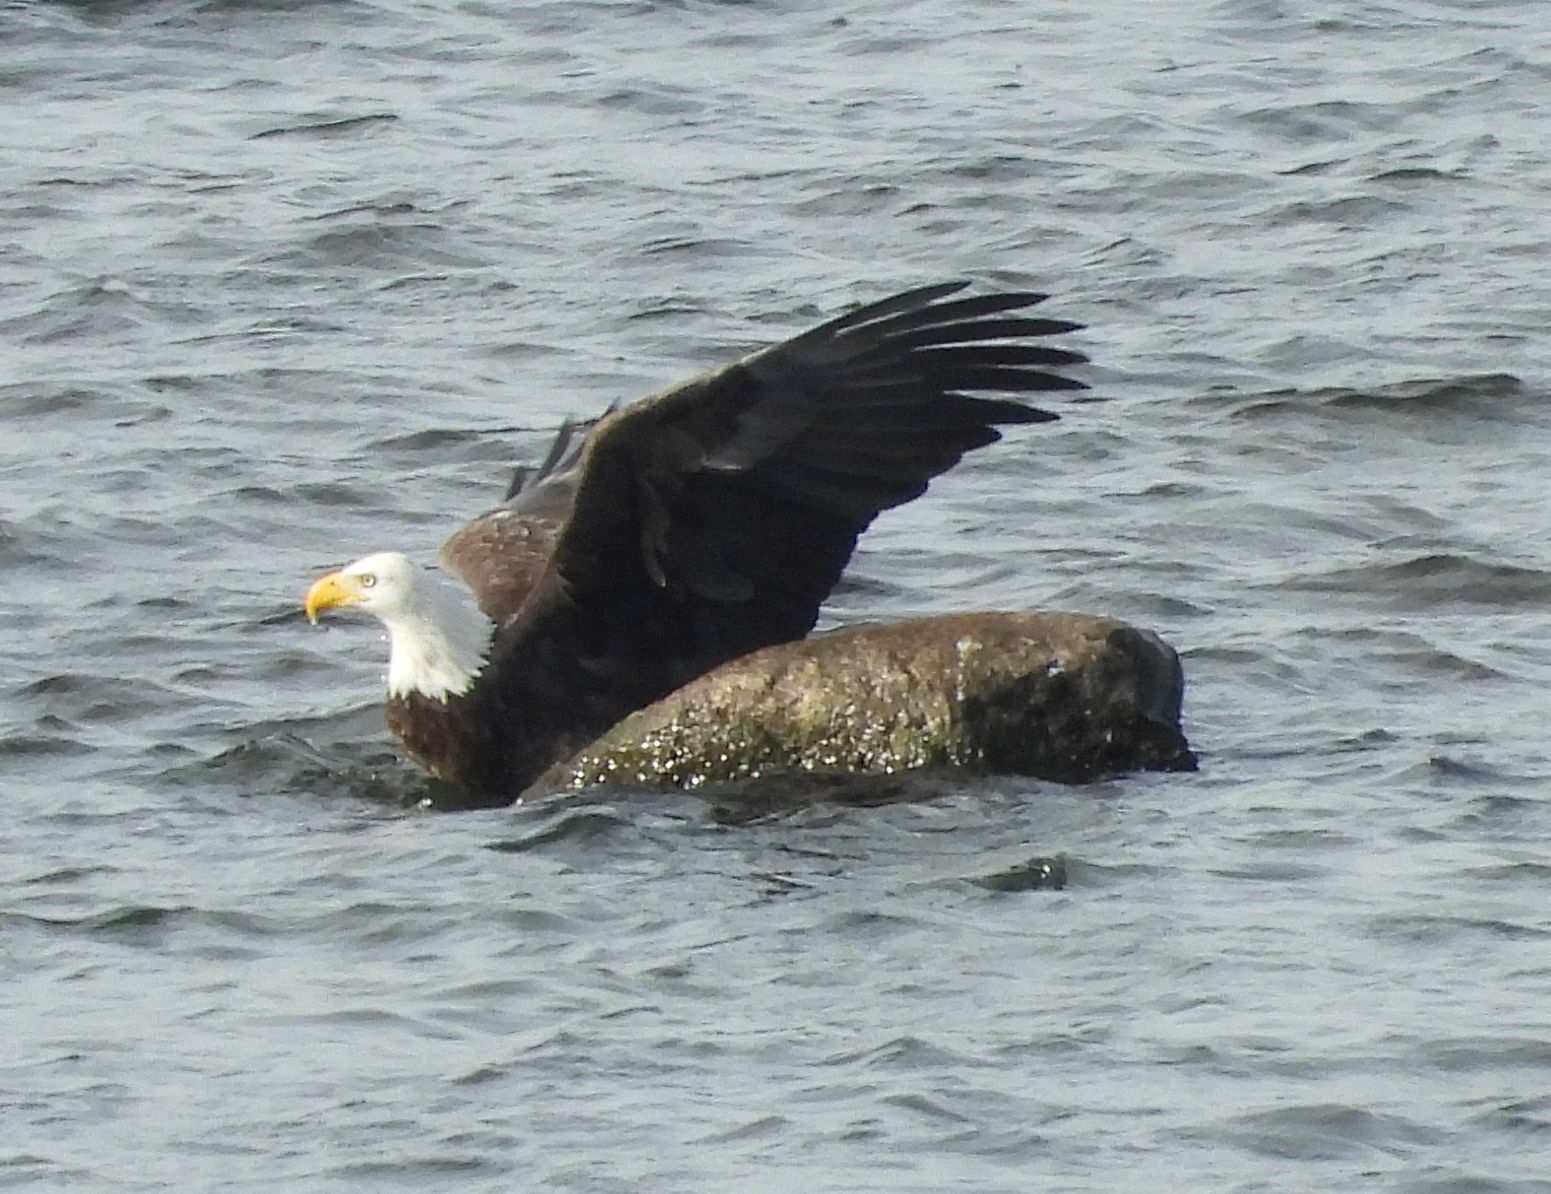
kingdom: Animalia
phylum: Chordata
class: Aves
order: Accipitriformes
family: Accipitridae
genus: Haliaeetus
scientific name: Haliaeetus leucocephalus
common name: Bald eagle
